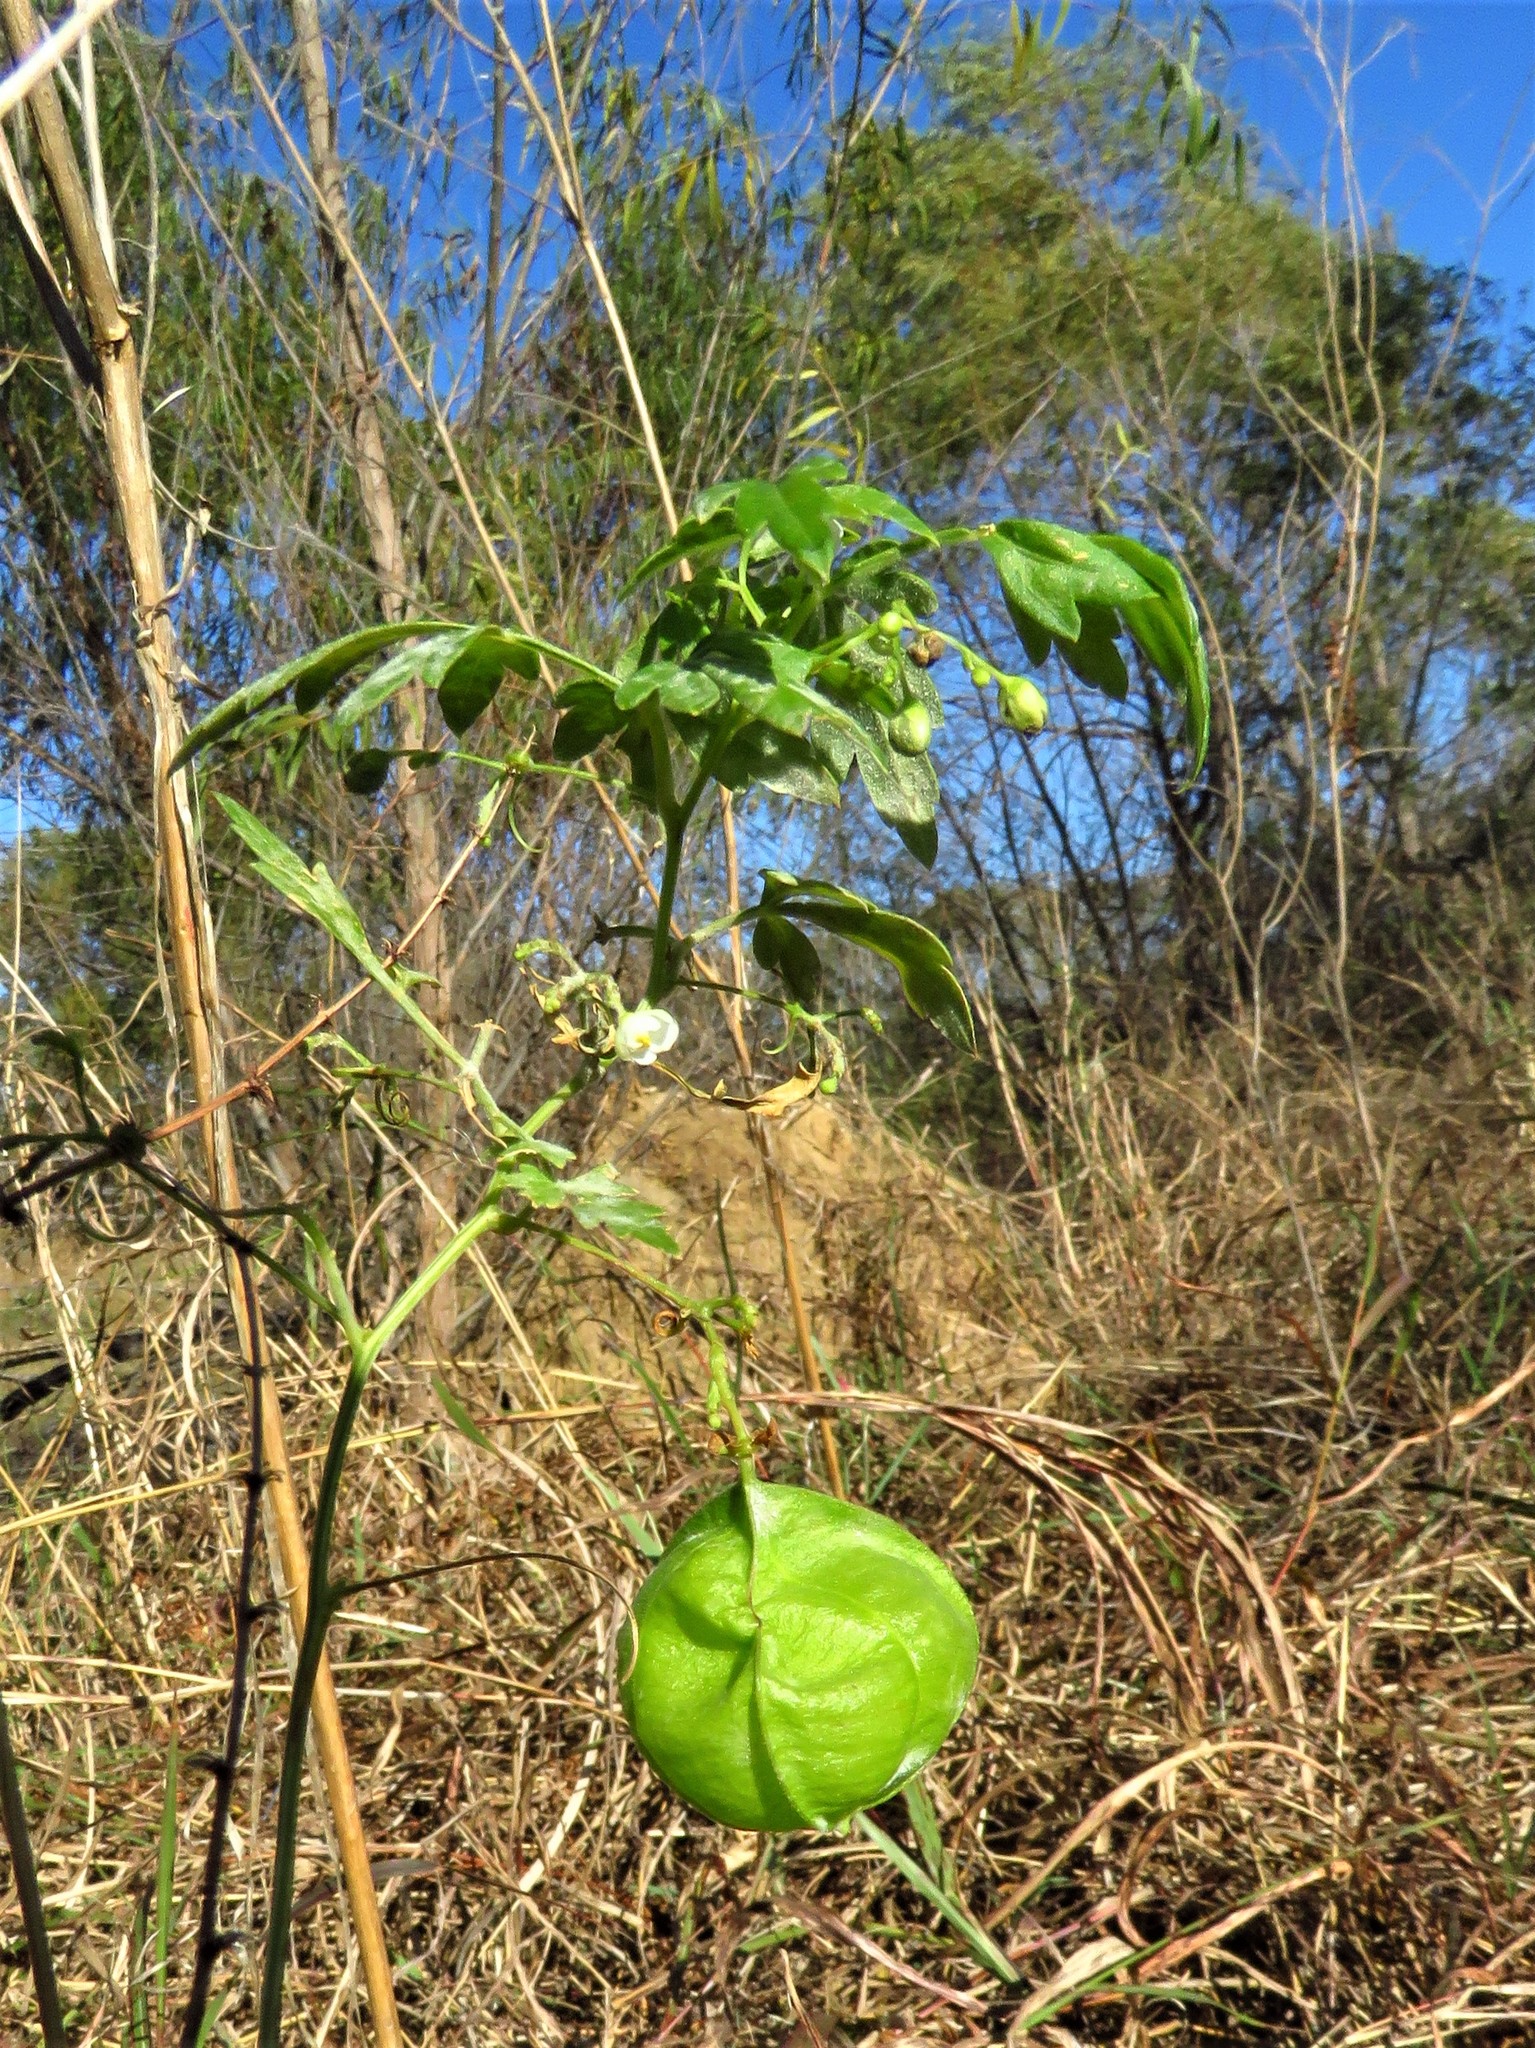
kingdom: Plantae
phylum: Tracheophyta
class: Magnoliopsida
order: Sapindales
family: Sapindaceae
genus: Cardiospermum
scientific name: Cardiospermum halicacabum
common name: Balloon vine
